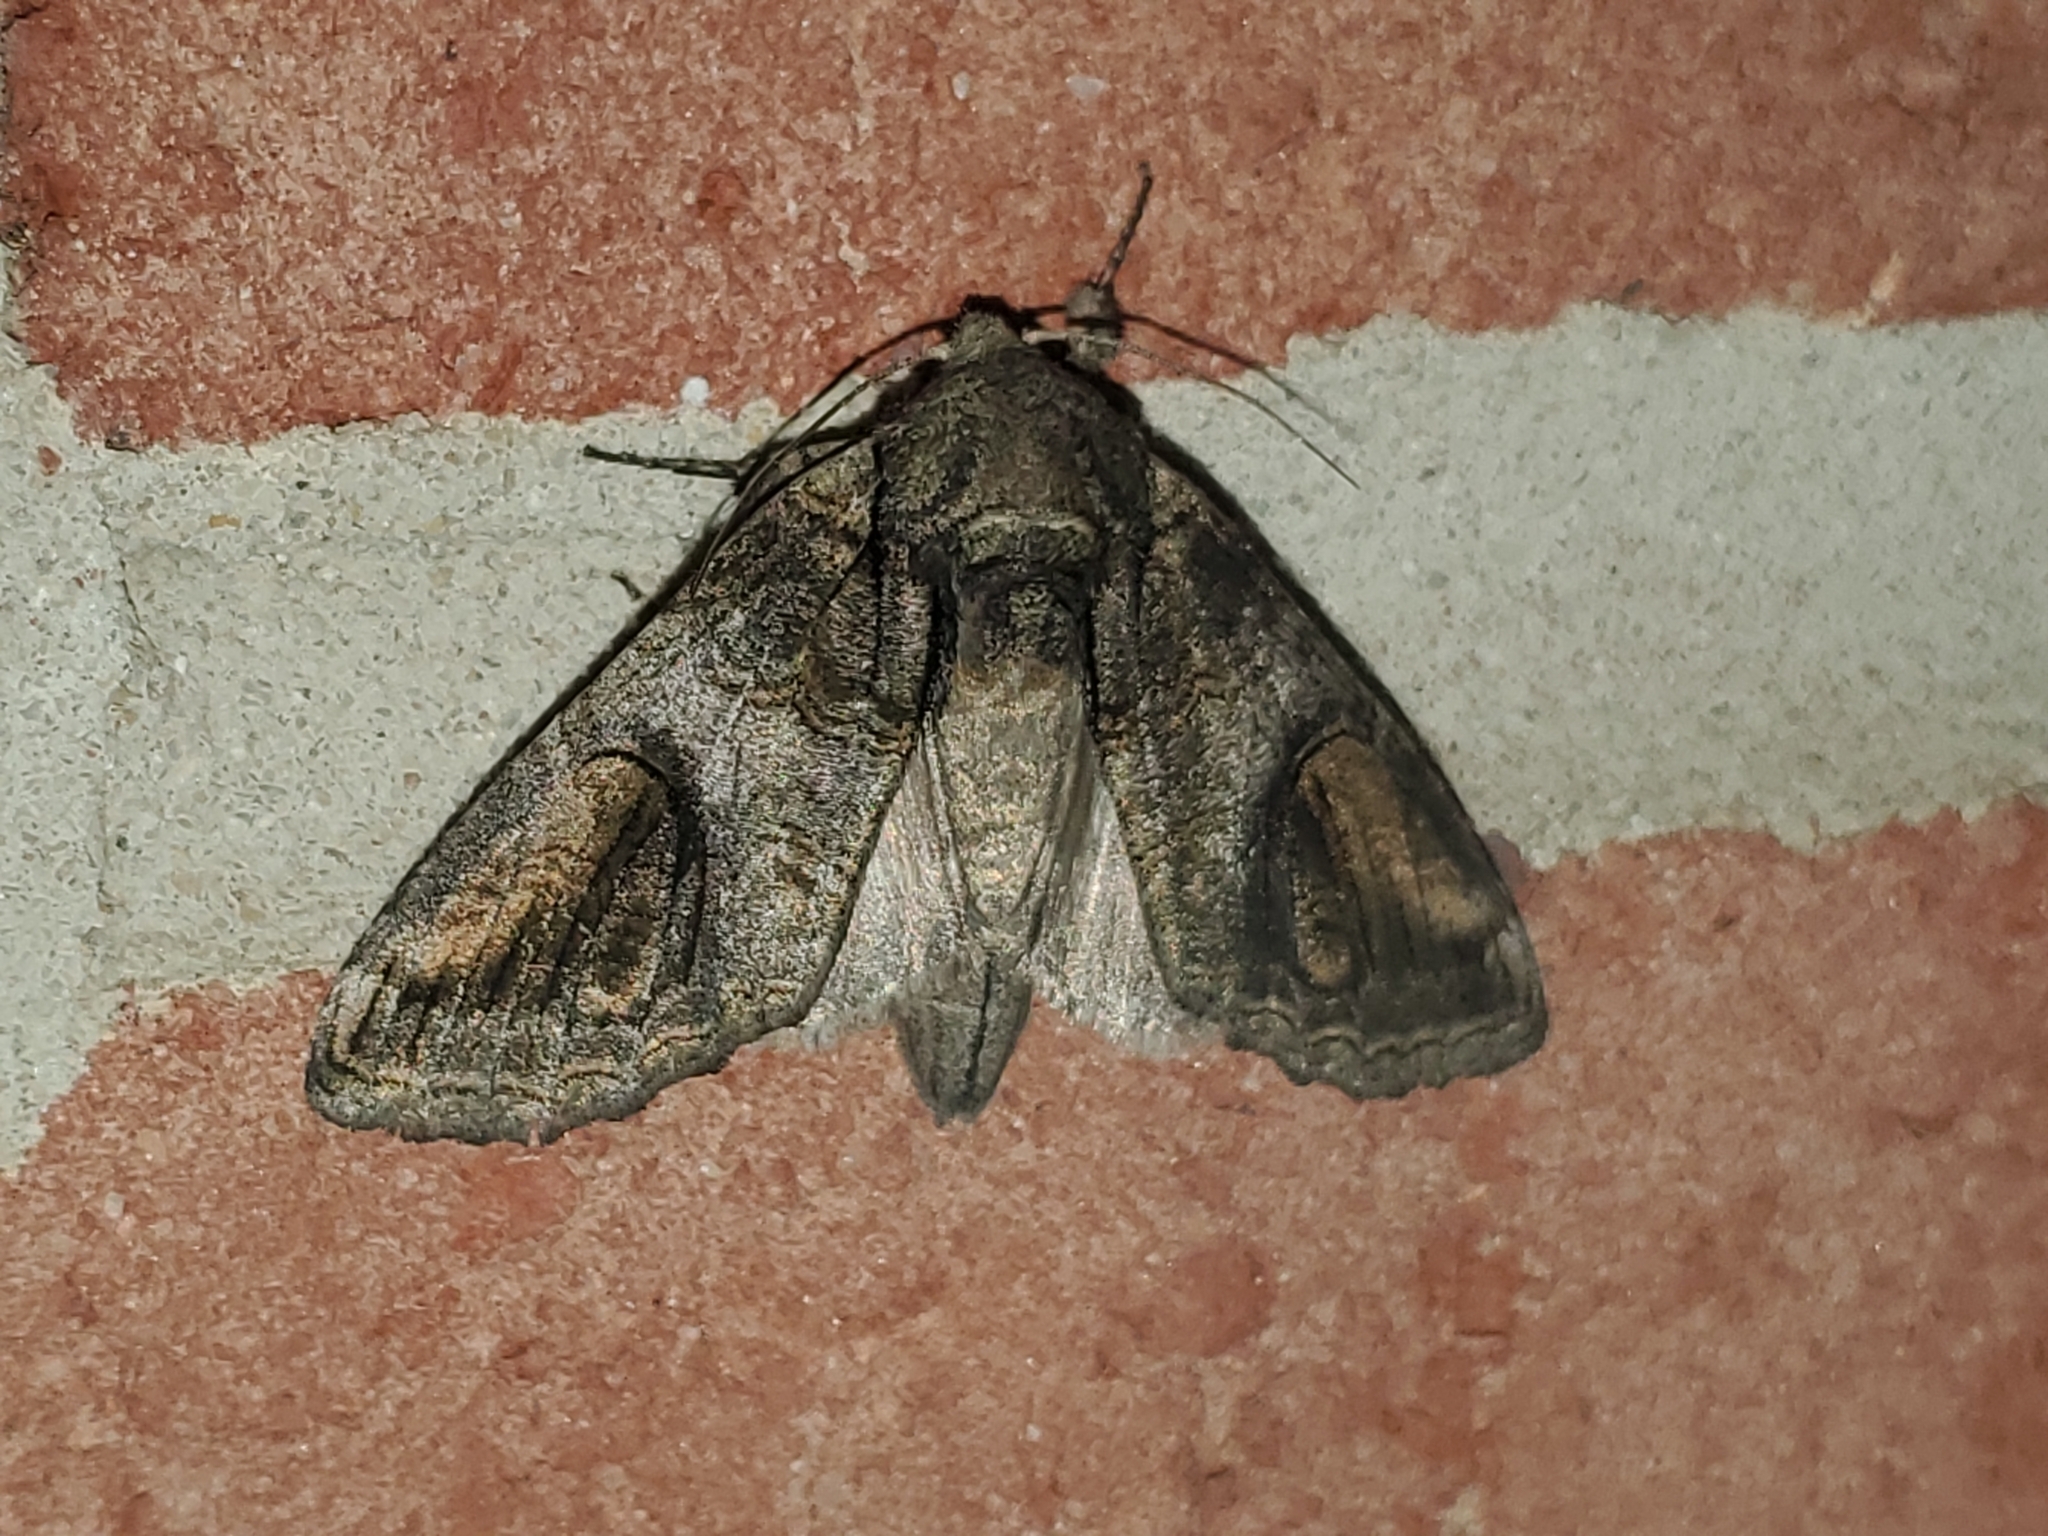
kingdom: Animalia
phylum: Arthropoda
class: Insecta
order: Lepidoptera
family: Notodontidae
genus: Heterocampa
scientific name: Heterocampa obliqua
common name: Oblique heterocampa
